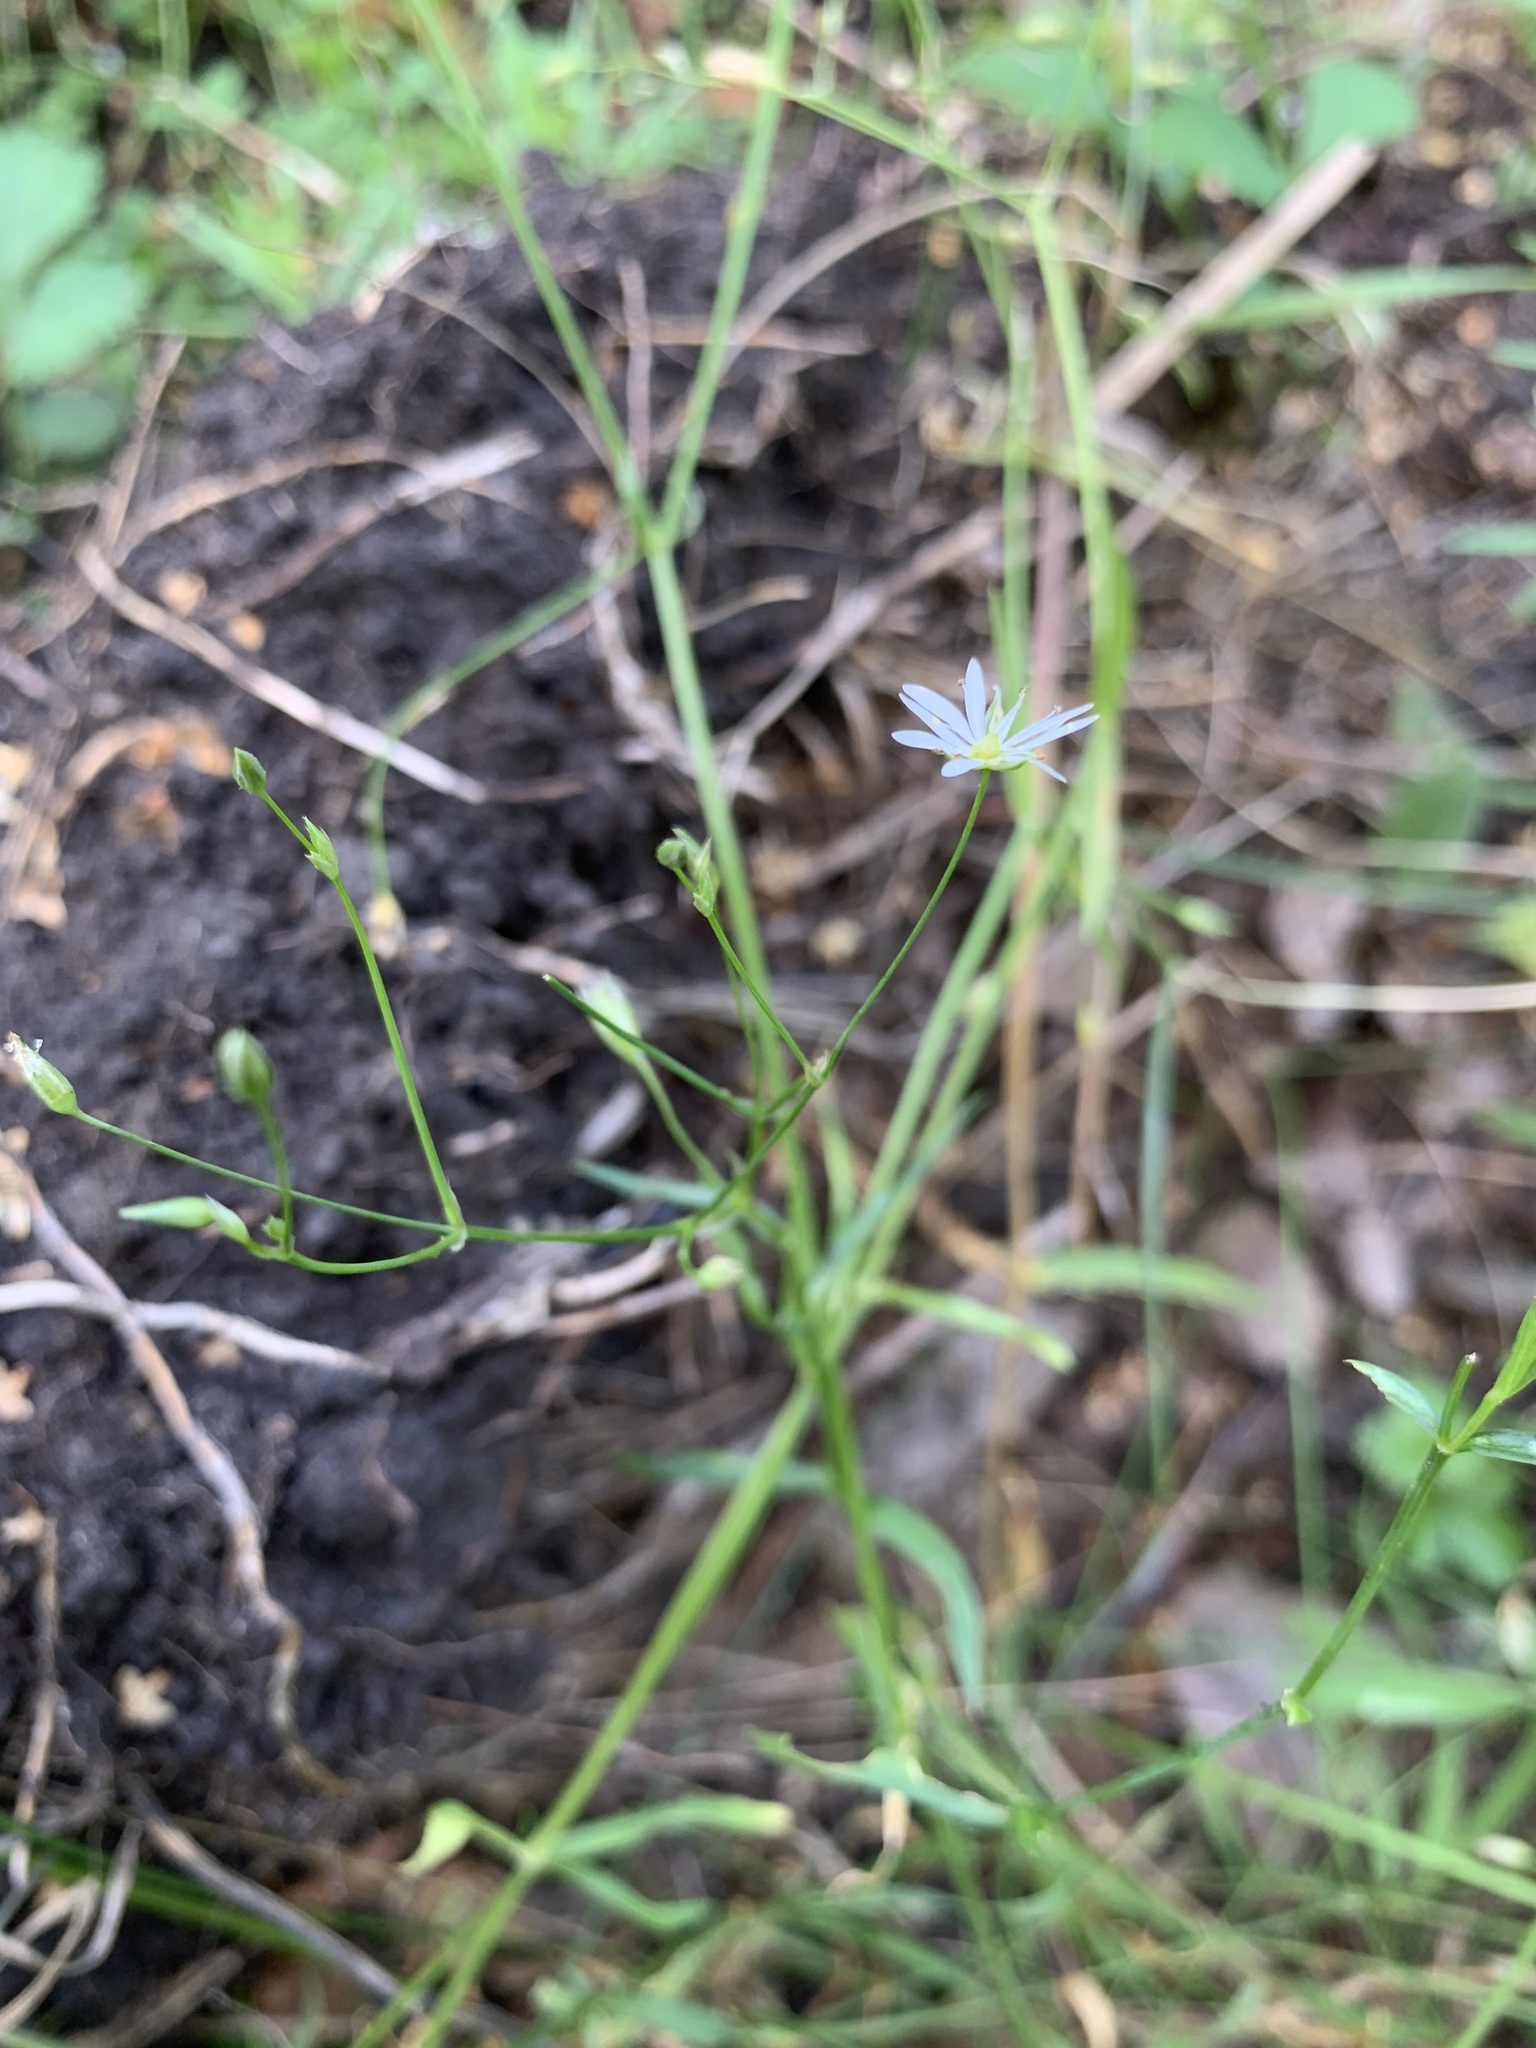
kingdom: Plantae
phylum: Tracheophyta
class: Magnoliopsida
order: Caryophyllales
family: Caryophyllaceae
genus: Stellaria
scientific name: Stellaria graminea
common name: Grass-like starwort
